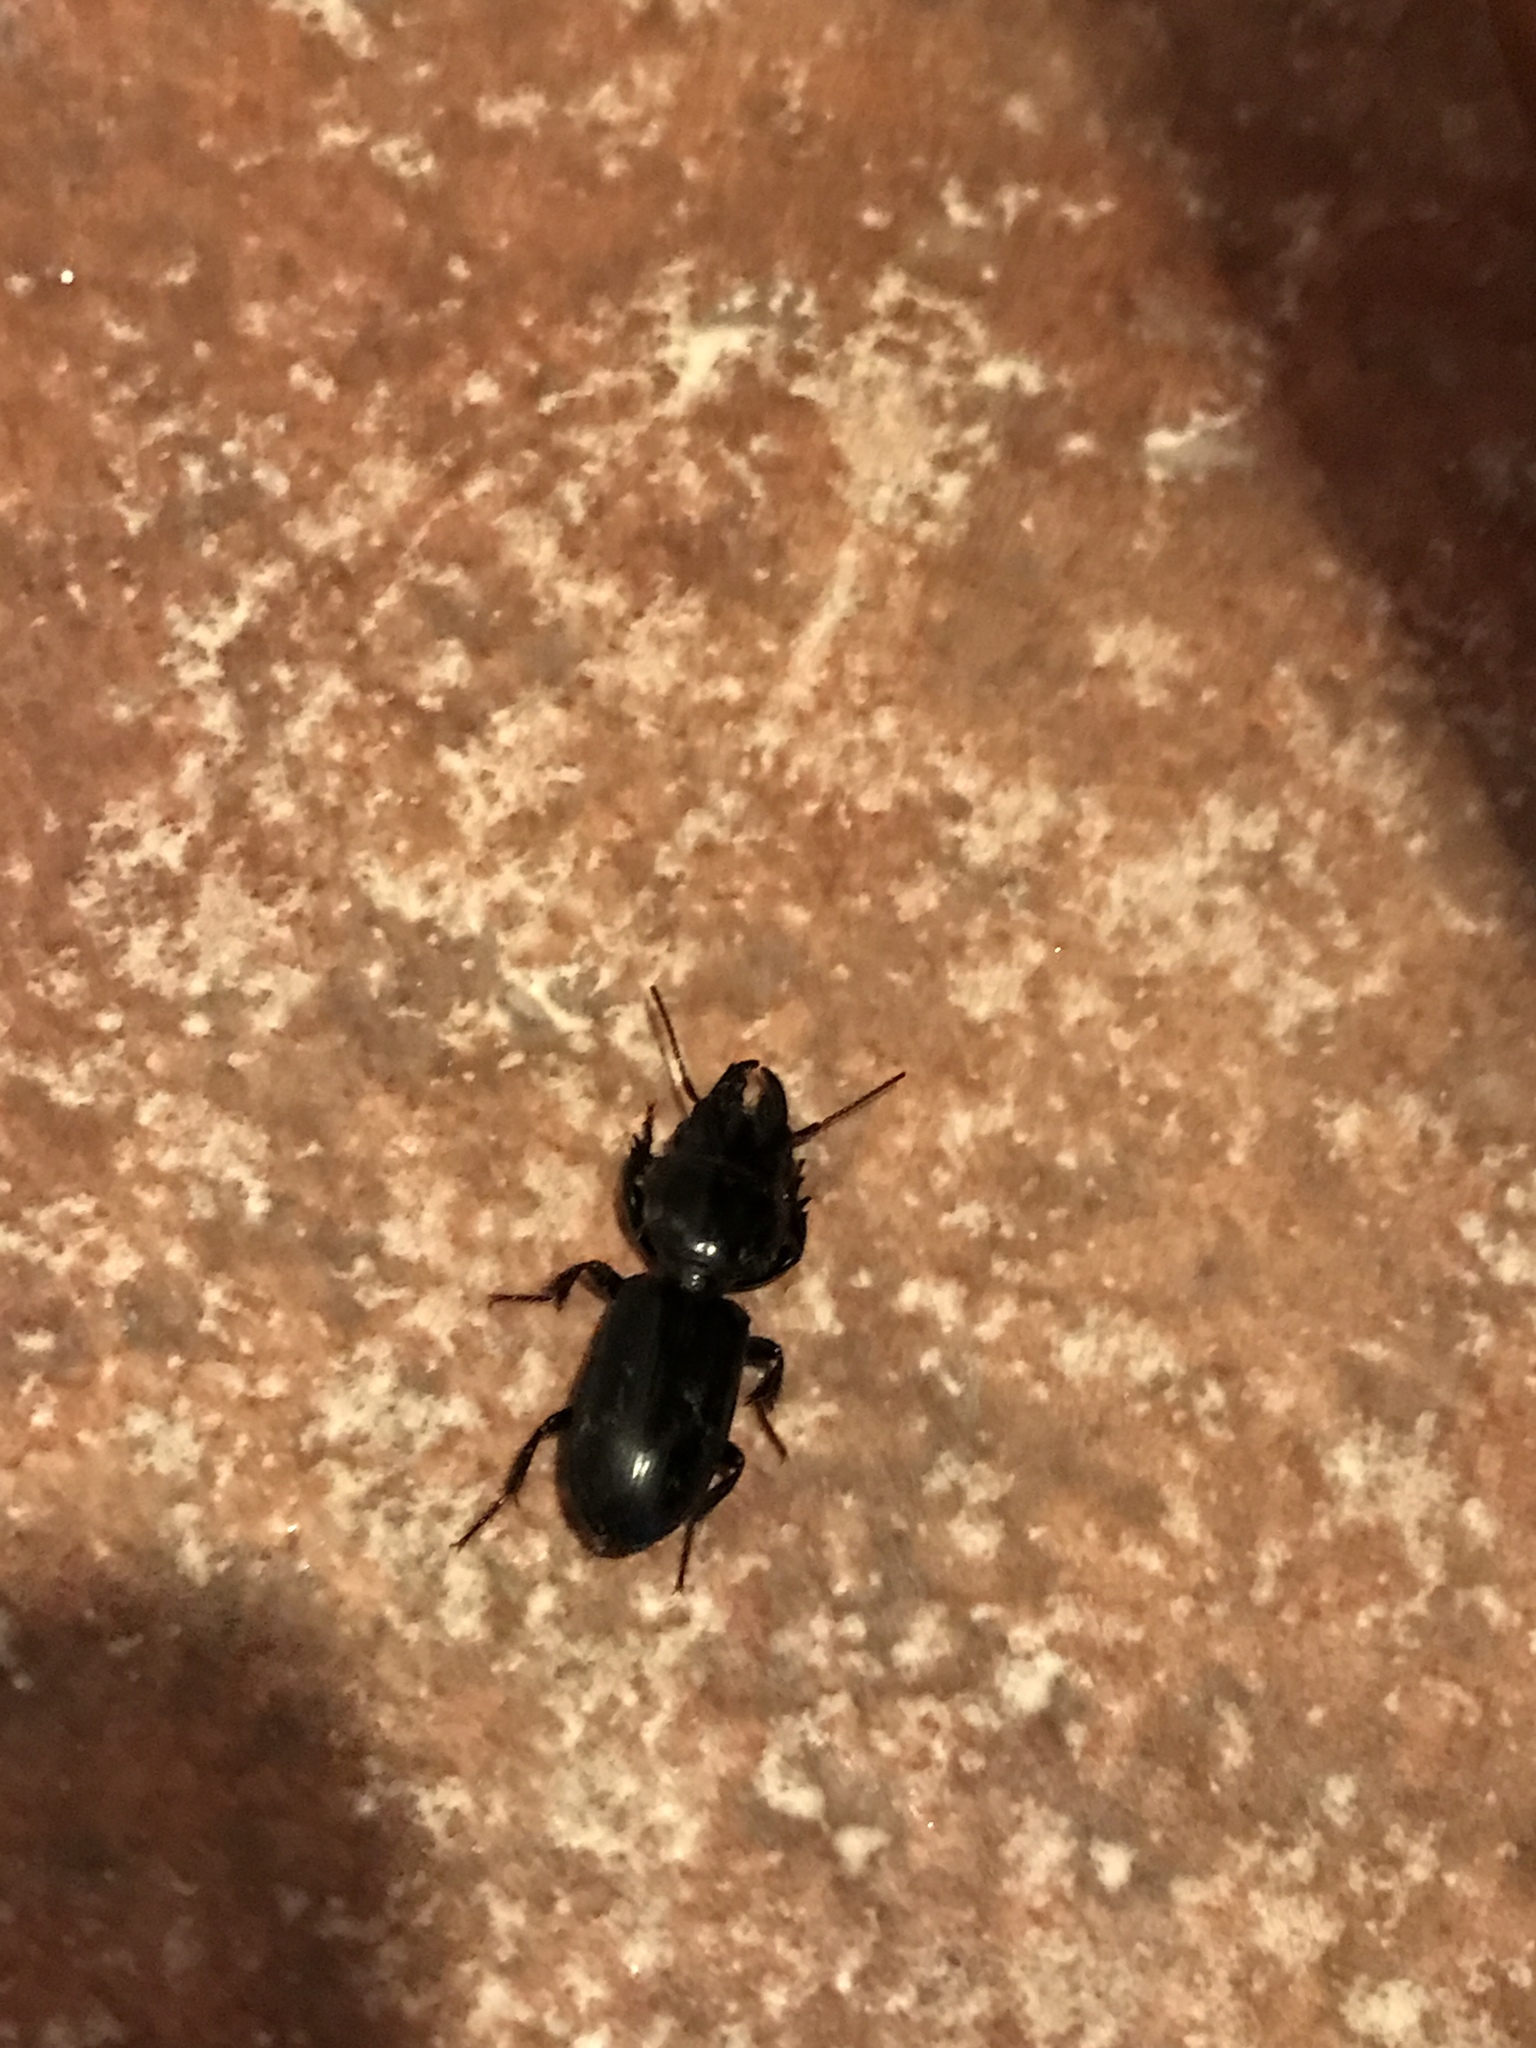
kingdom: Animalia
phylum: Arthropoda
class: Insecta
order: Coleoptera
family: Carabidae
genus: Scarites
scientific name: Scarites subterraneus
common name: Big-headed ground beetle
